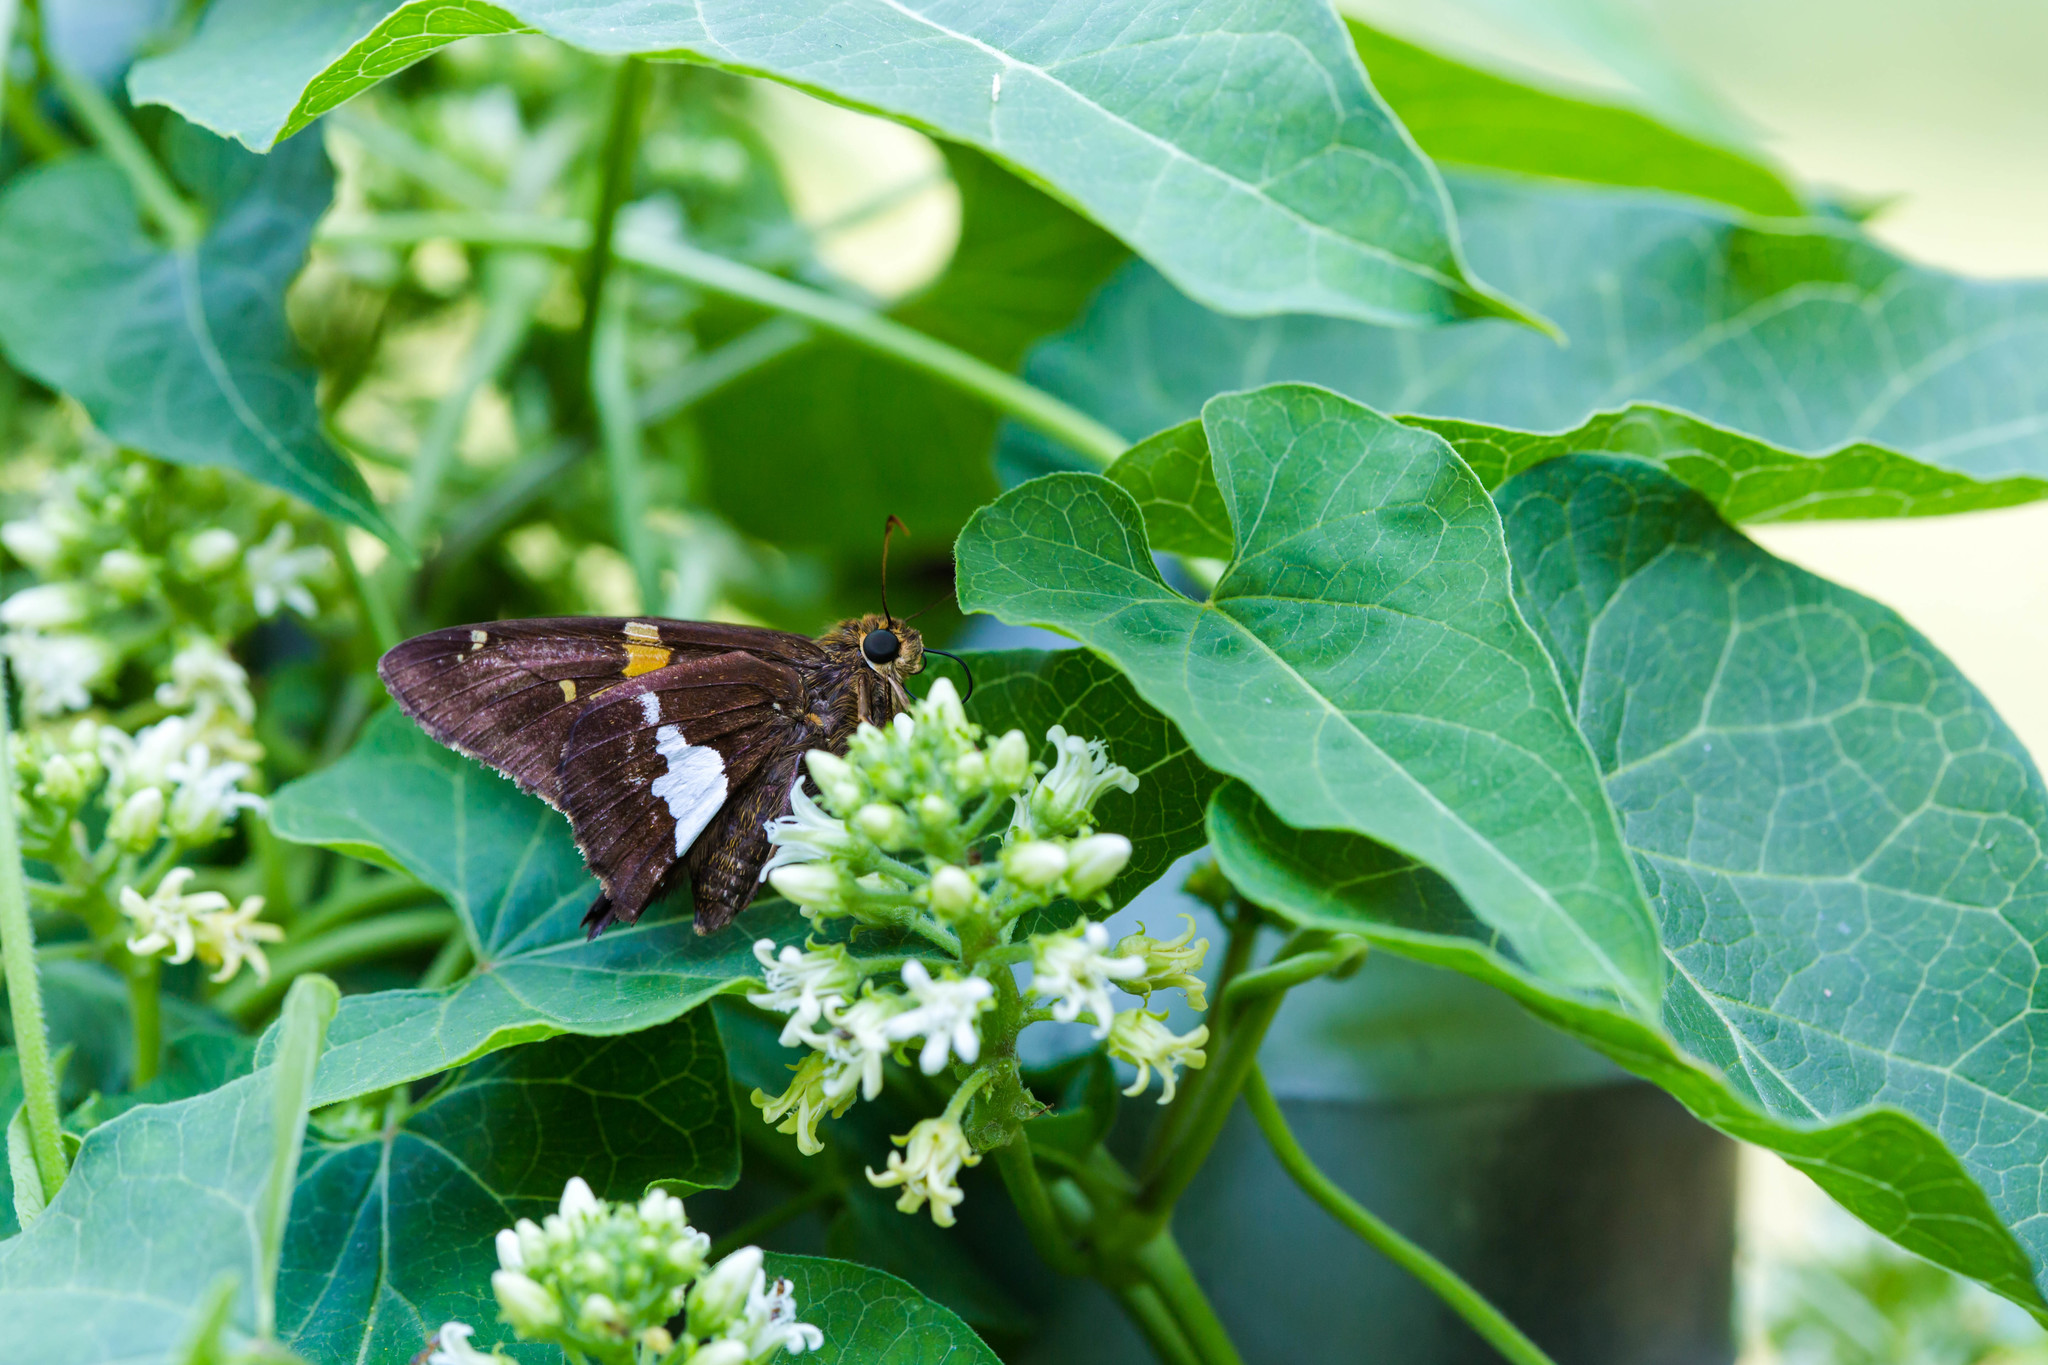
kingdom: Animalia
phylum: Arthropoda
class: Insecta
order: Lepidoptera
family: Hesperiidae
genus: Epargyreus
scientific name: Epargyreus clarus
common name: Silver-spotted skipper
